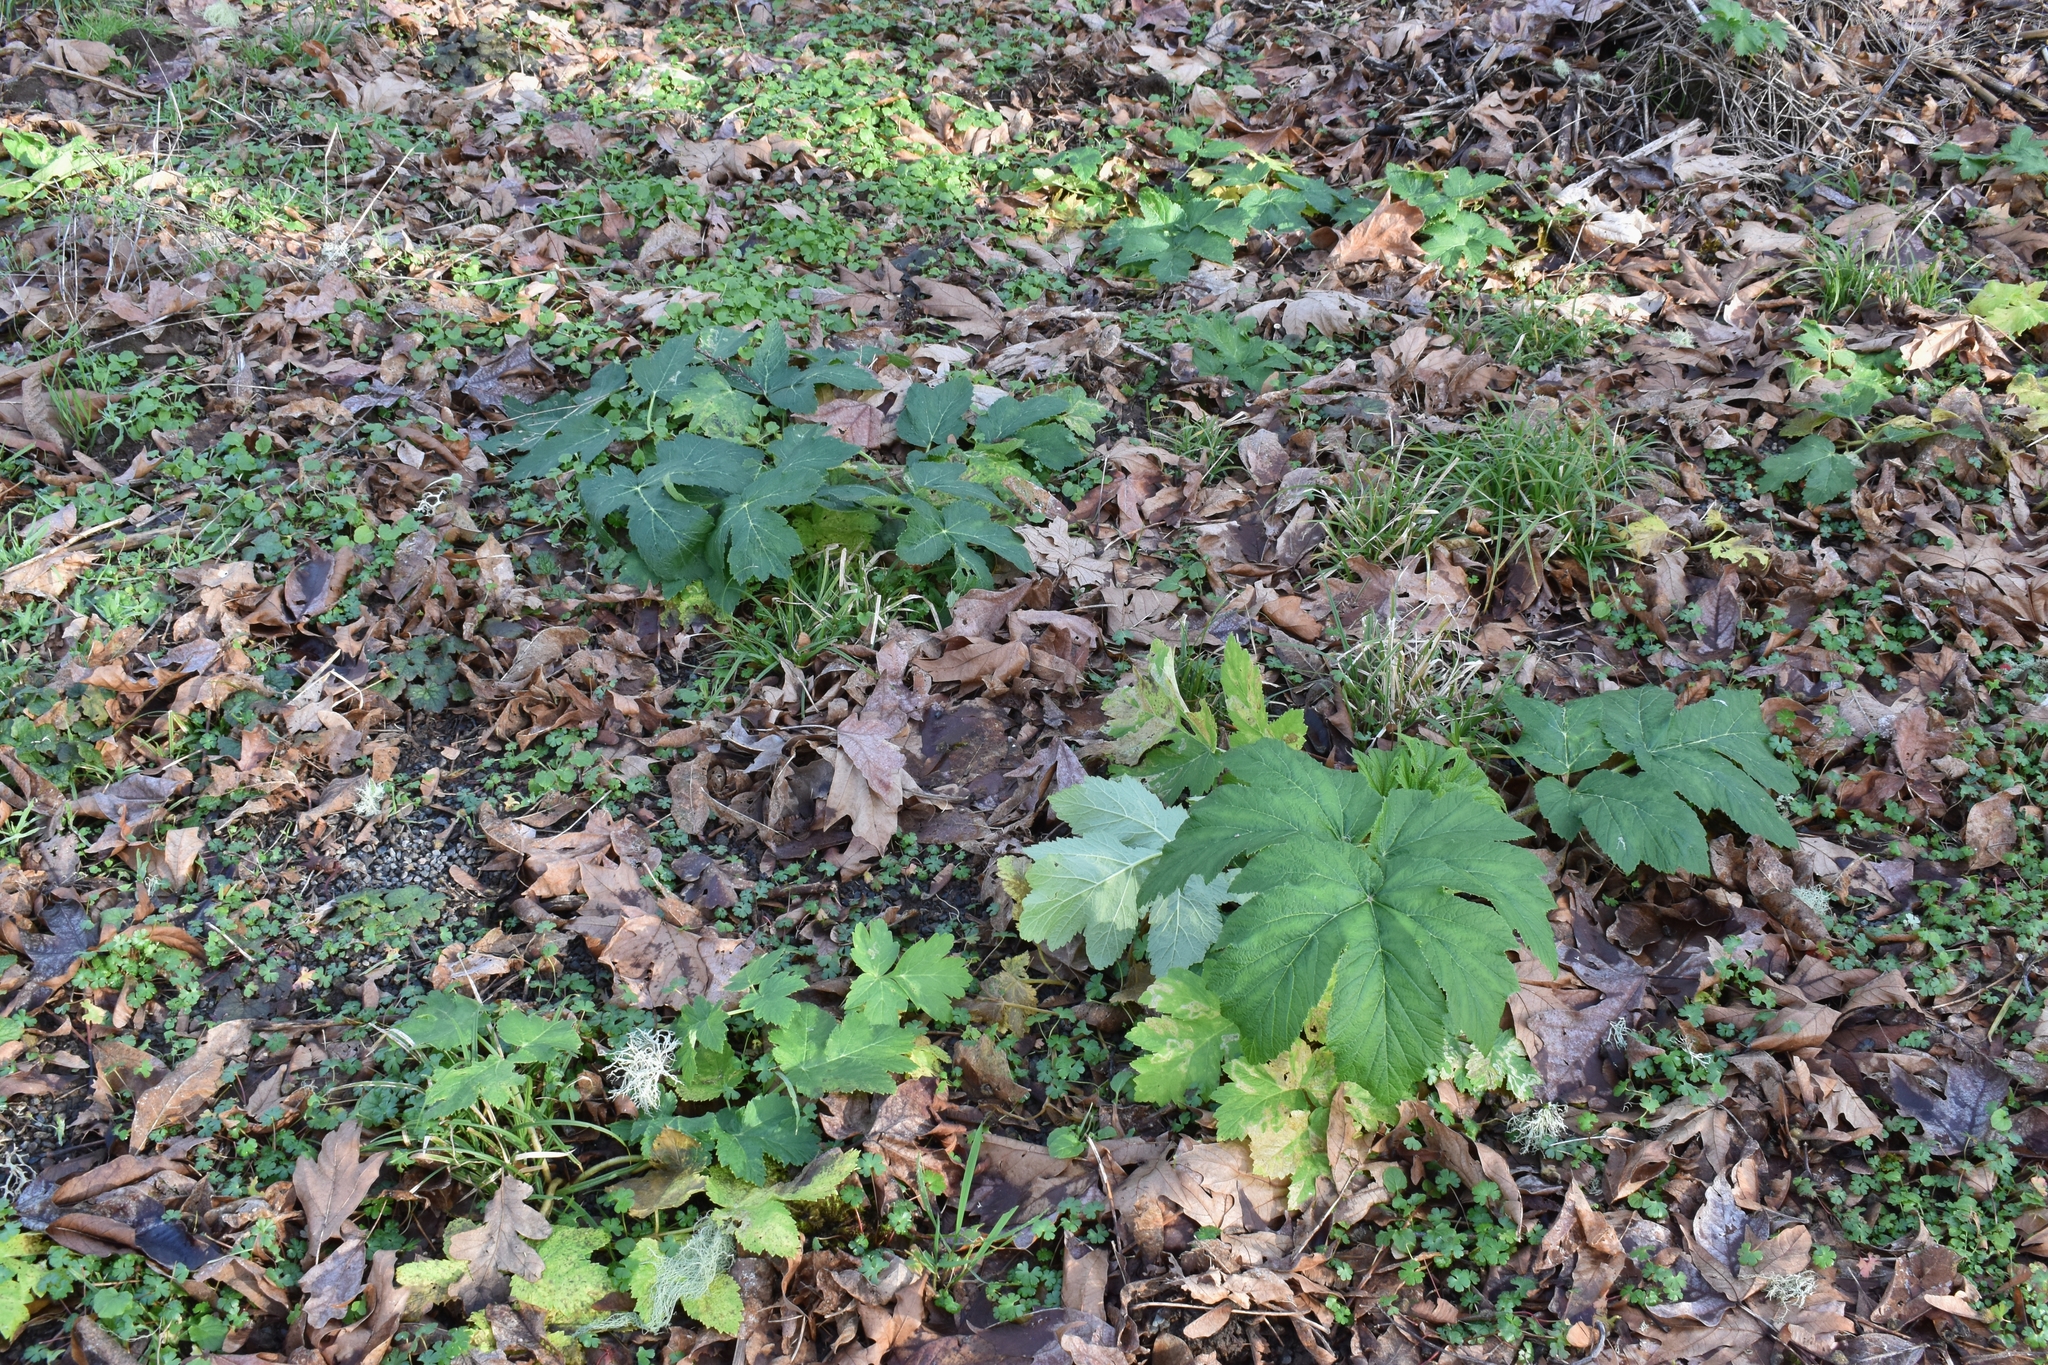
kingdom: Plantae
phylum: Tracheophyta
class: Magnoliopsida
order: Apiales
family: Apiaceae
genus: Heracleum
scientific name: Heracleum maximum
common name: American cow parsnip
